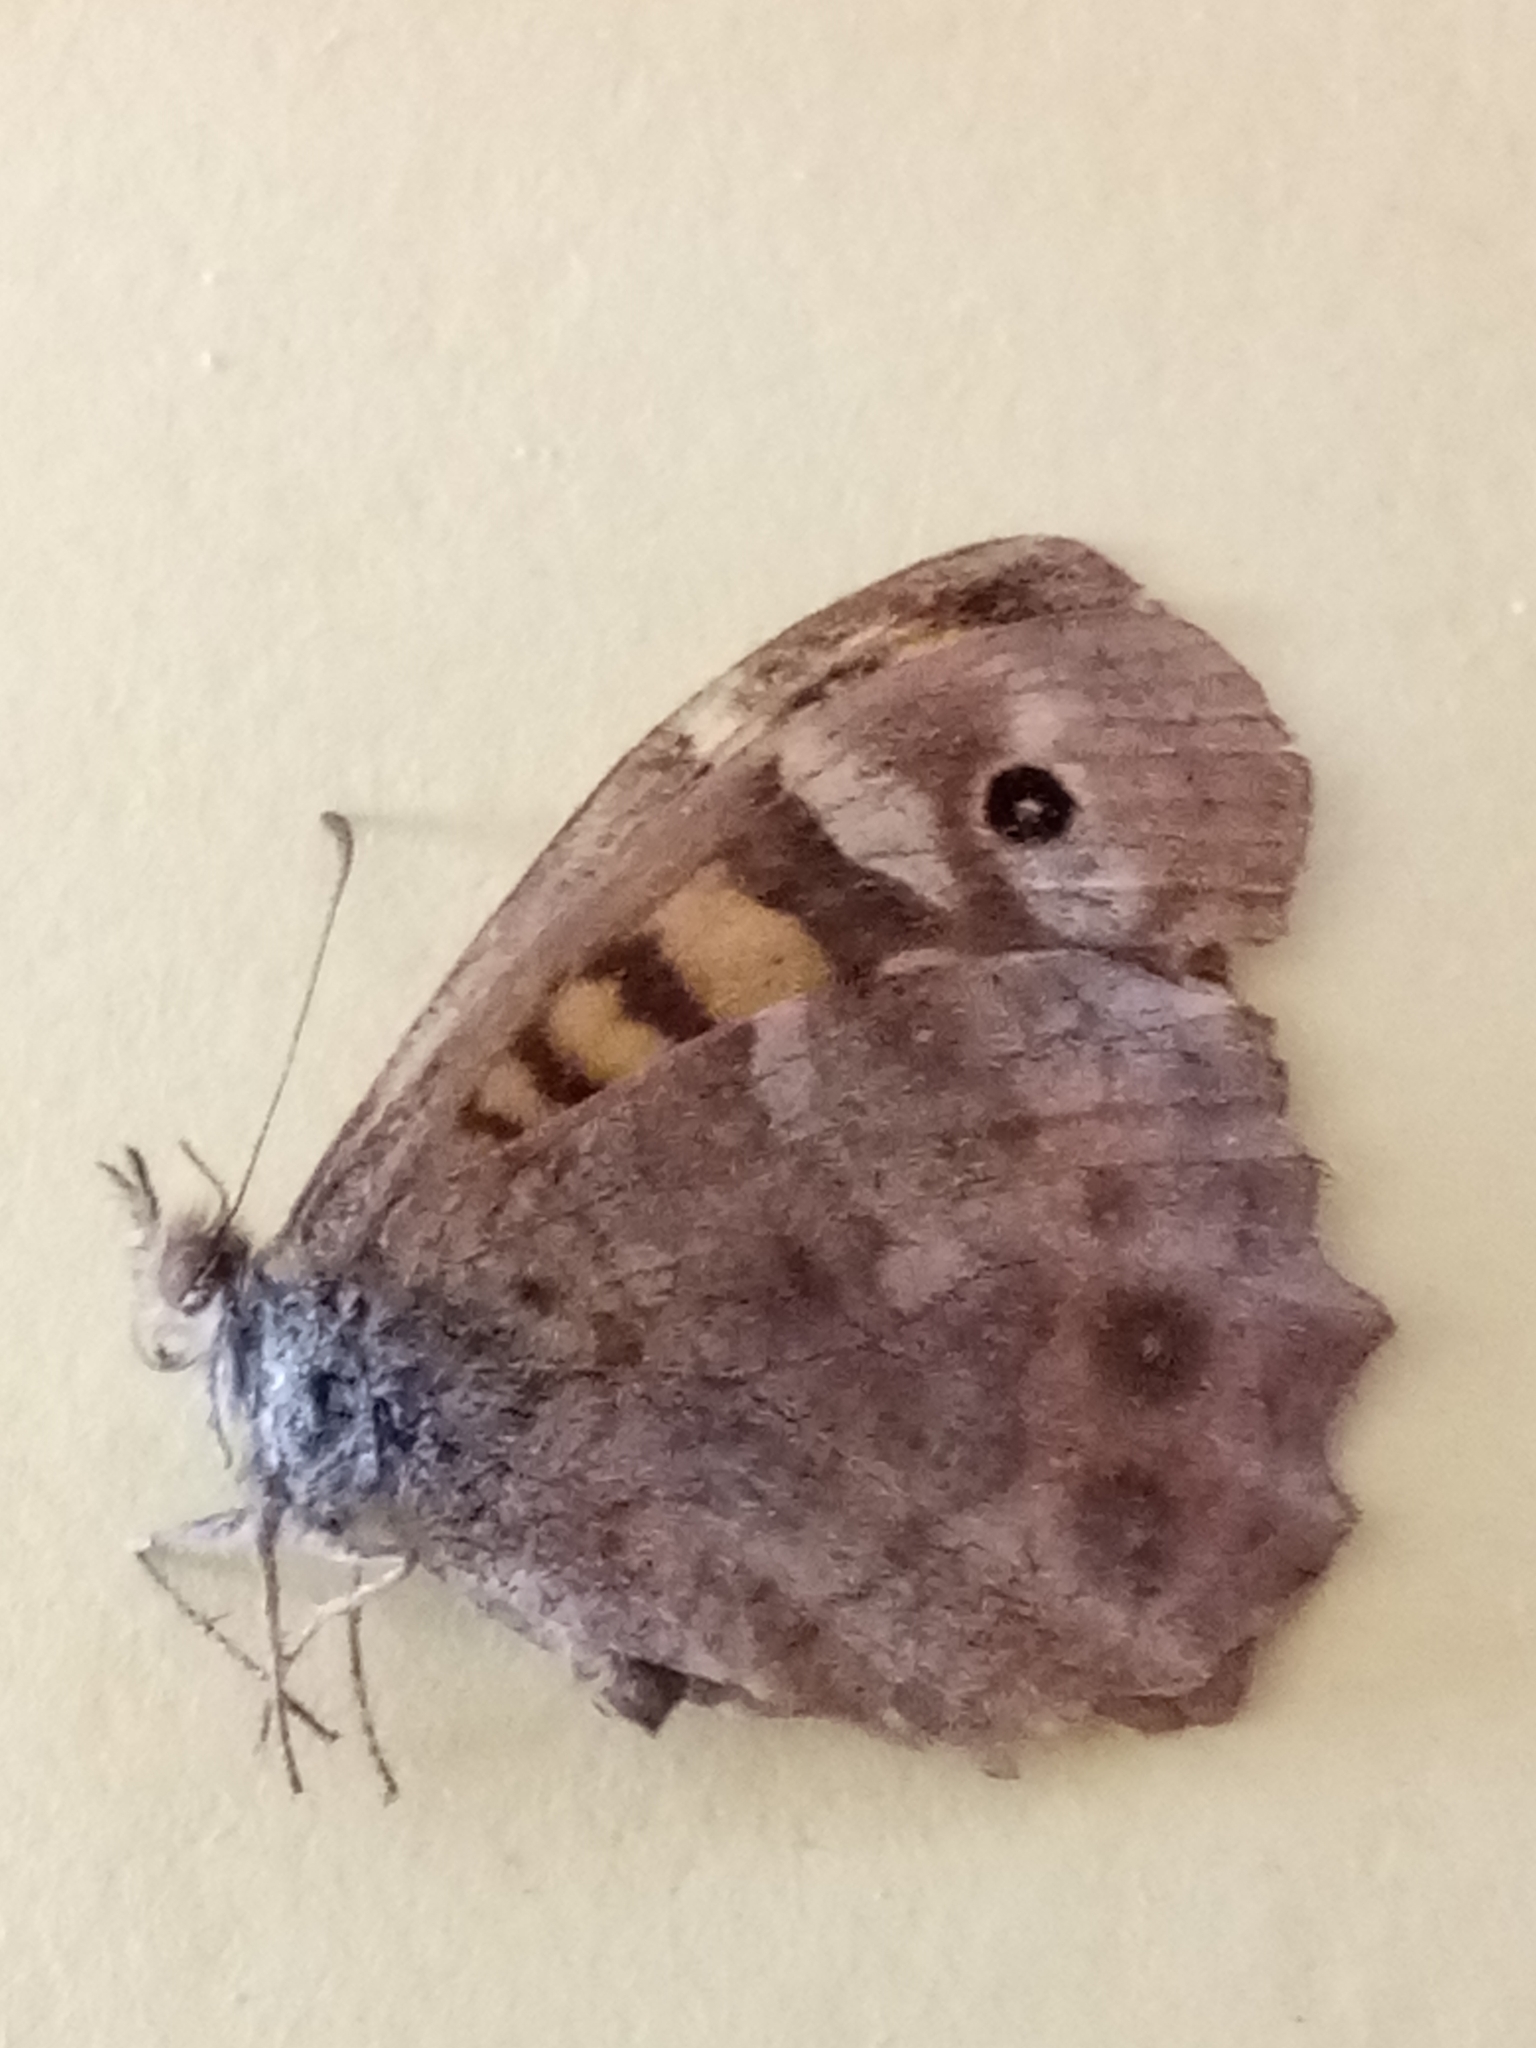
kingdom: Animalia
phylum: Arthropoda
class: Insecta
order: Lepidoptera
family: Nymphalidae
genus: Pararge
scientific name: Pararge aegeria
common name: Speckled wood
